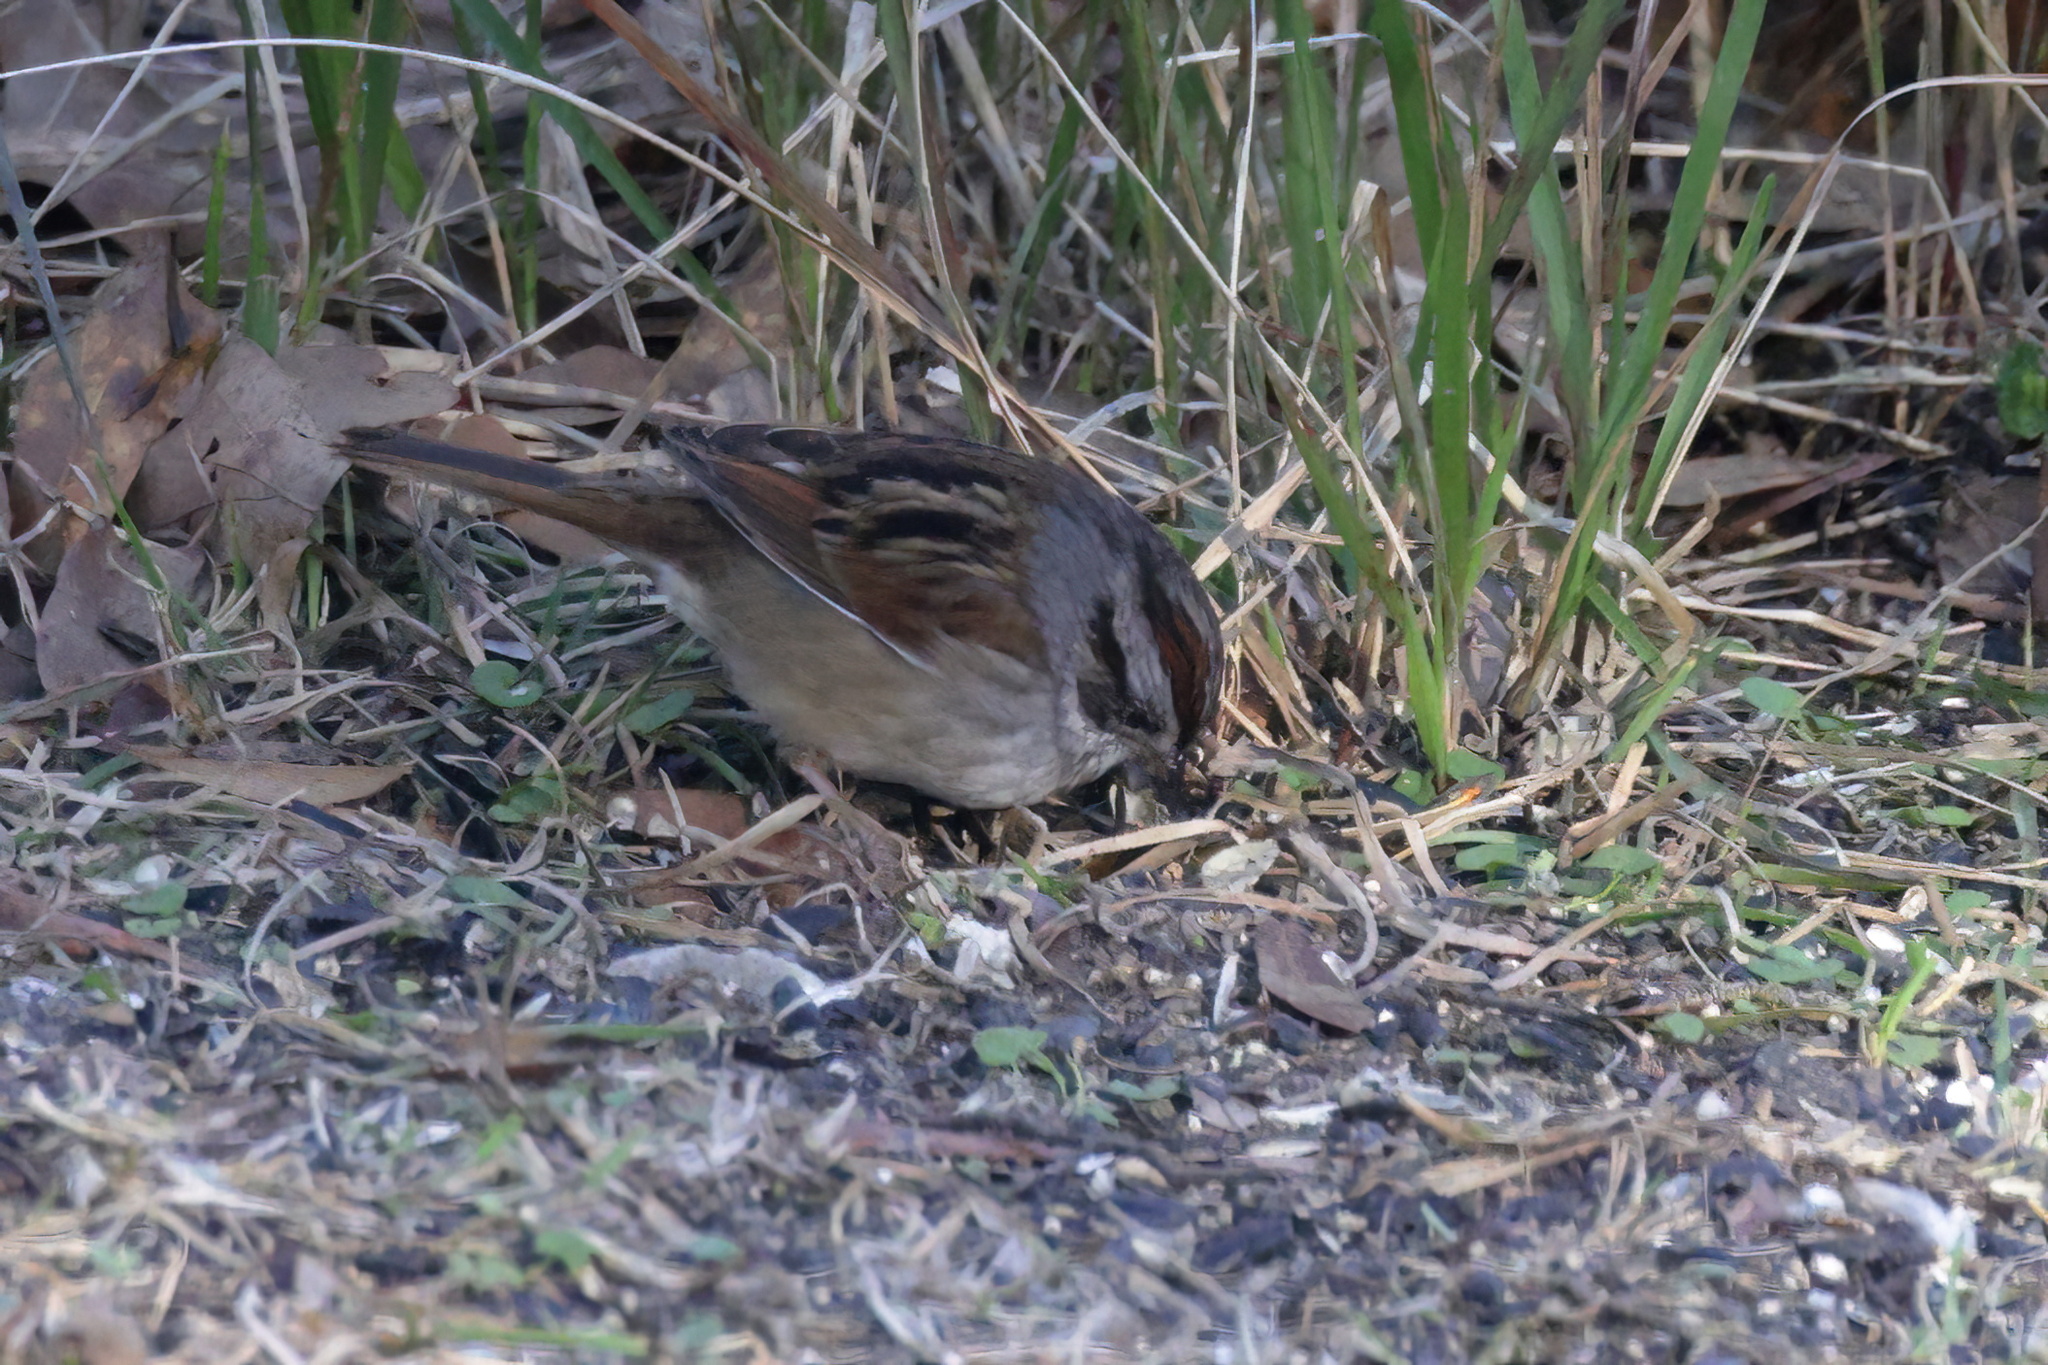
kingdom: Animalia
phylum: Chordata
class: Aves
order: Passeriformes
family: Passerellidae
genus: Melospiza
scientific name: Melospiza georgiana
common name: Swamp sparrow
